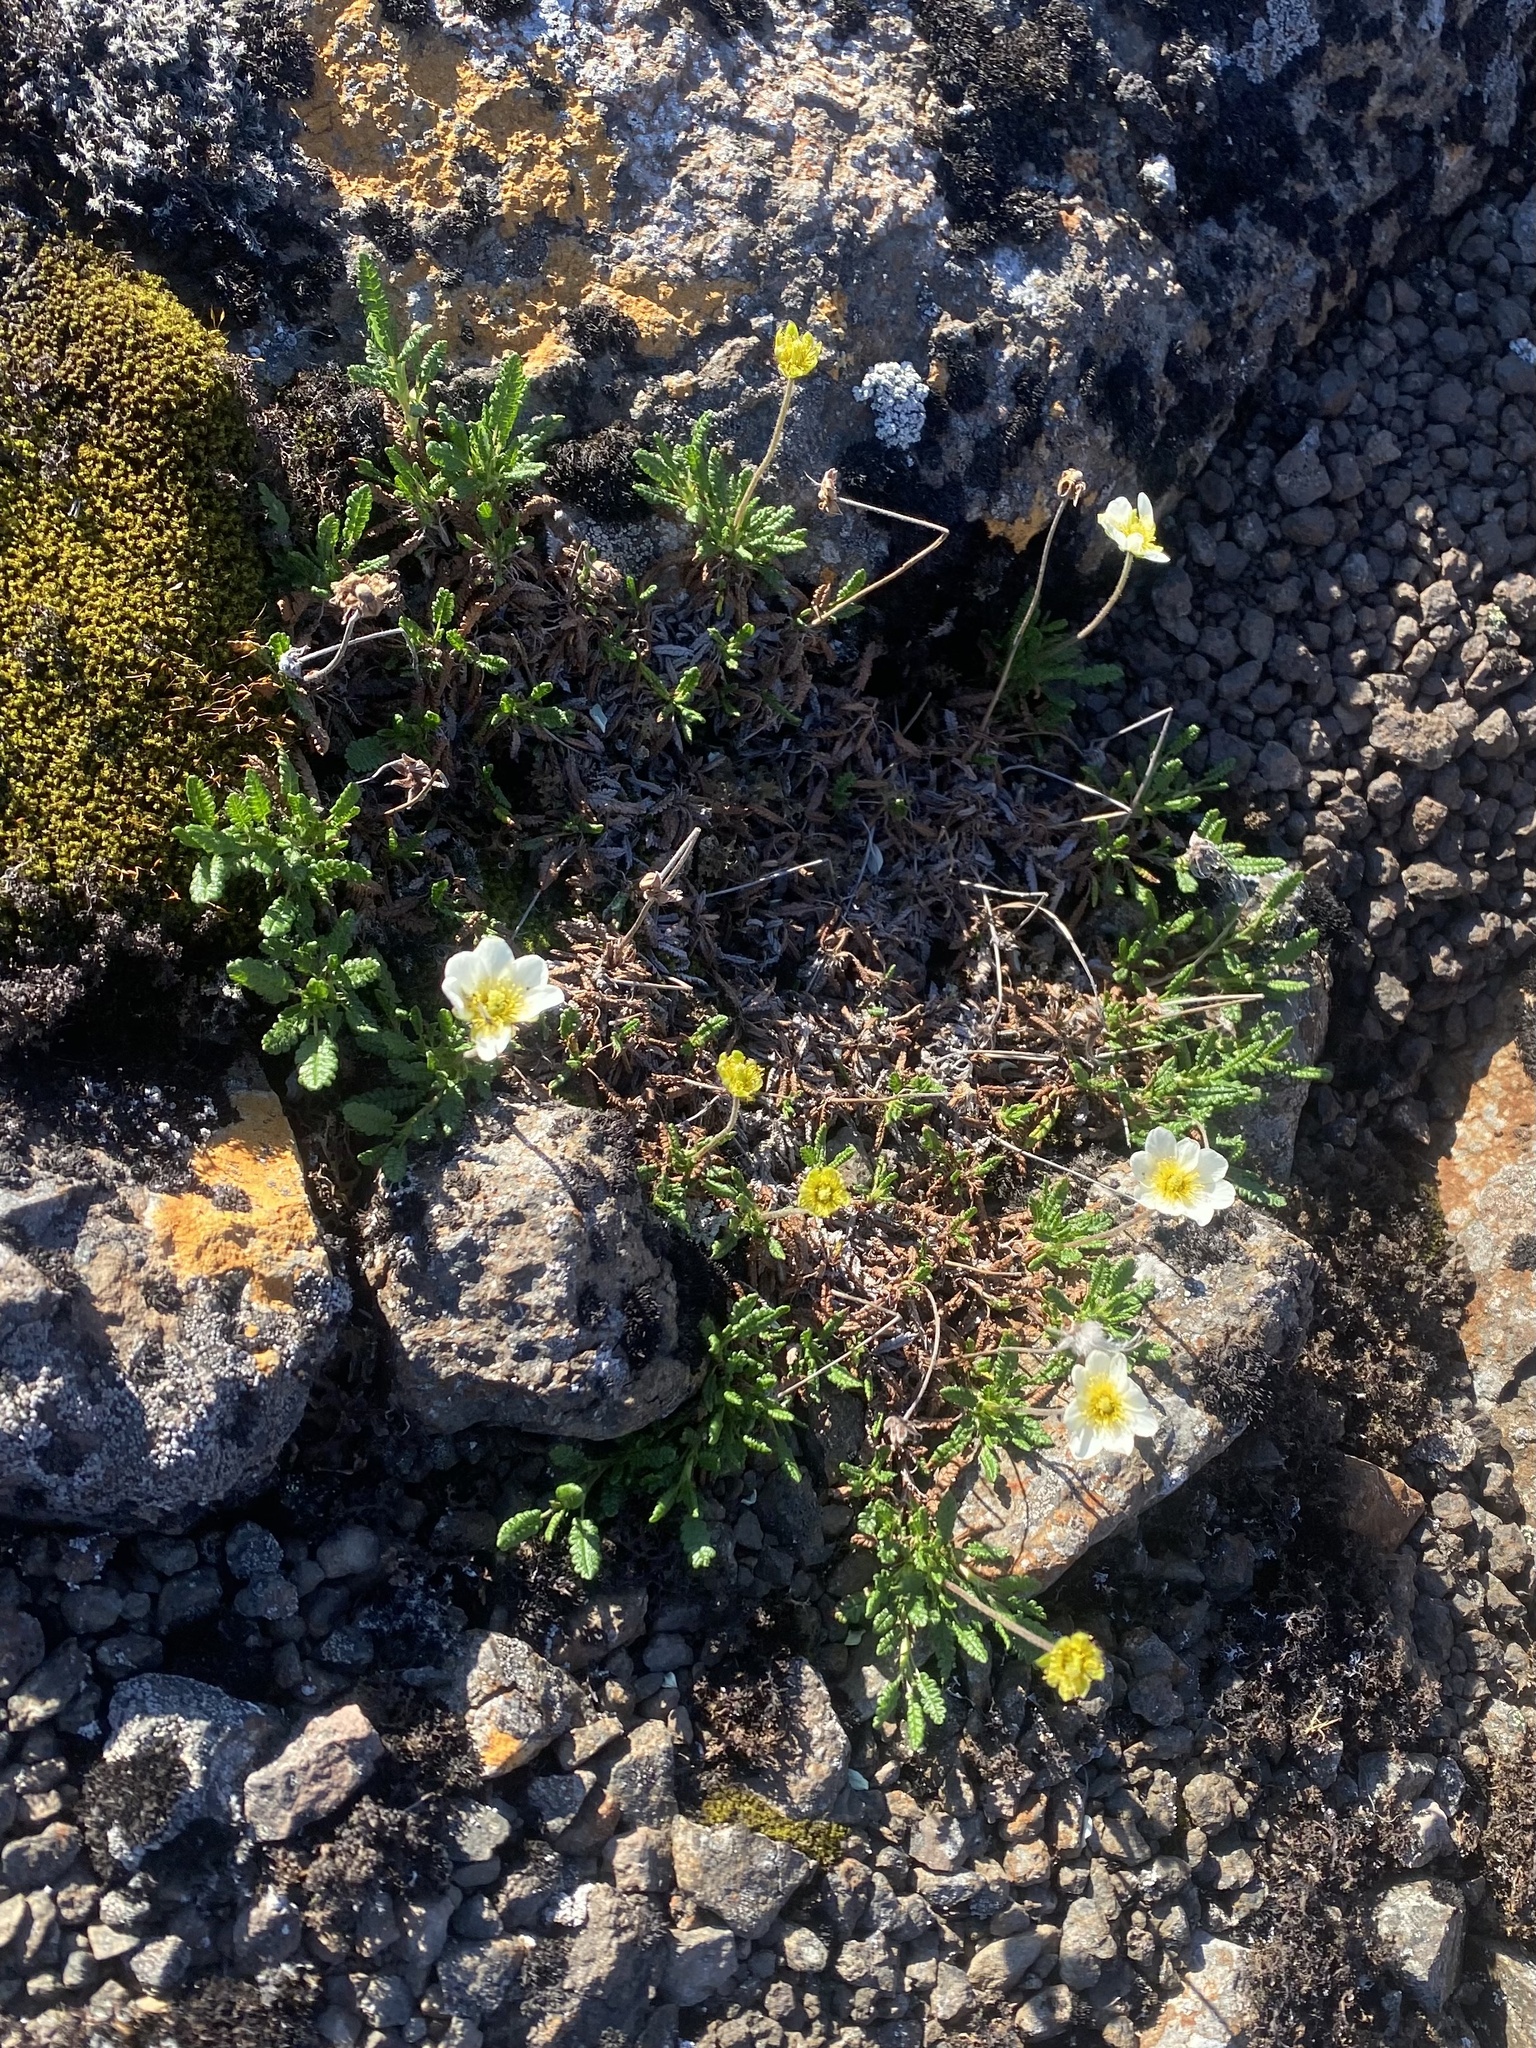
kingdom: Plantae
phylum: Tracheophyta
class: Magnoliopsida
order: Rosales
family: Rosaceae
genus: Dryas
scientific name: Dryas octopetala
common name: Eight-petal mountain-avens
